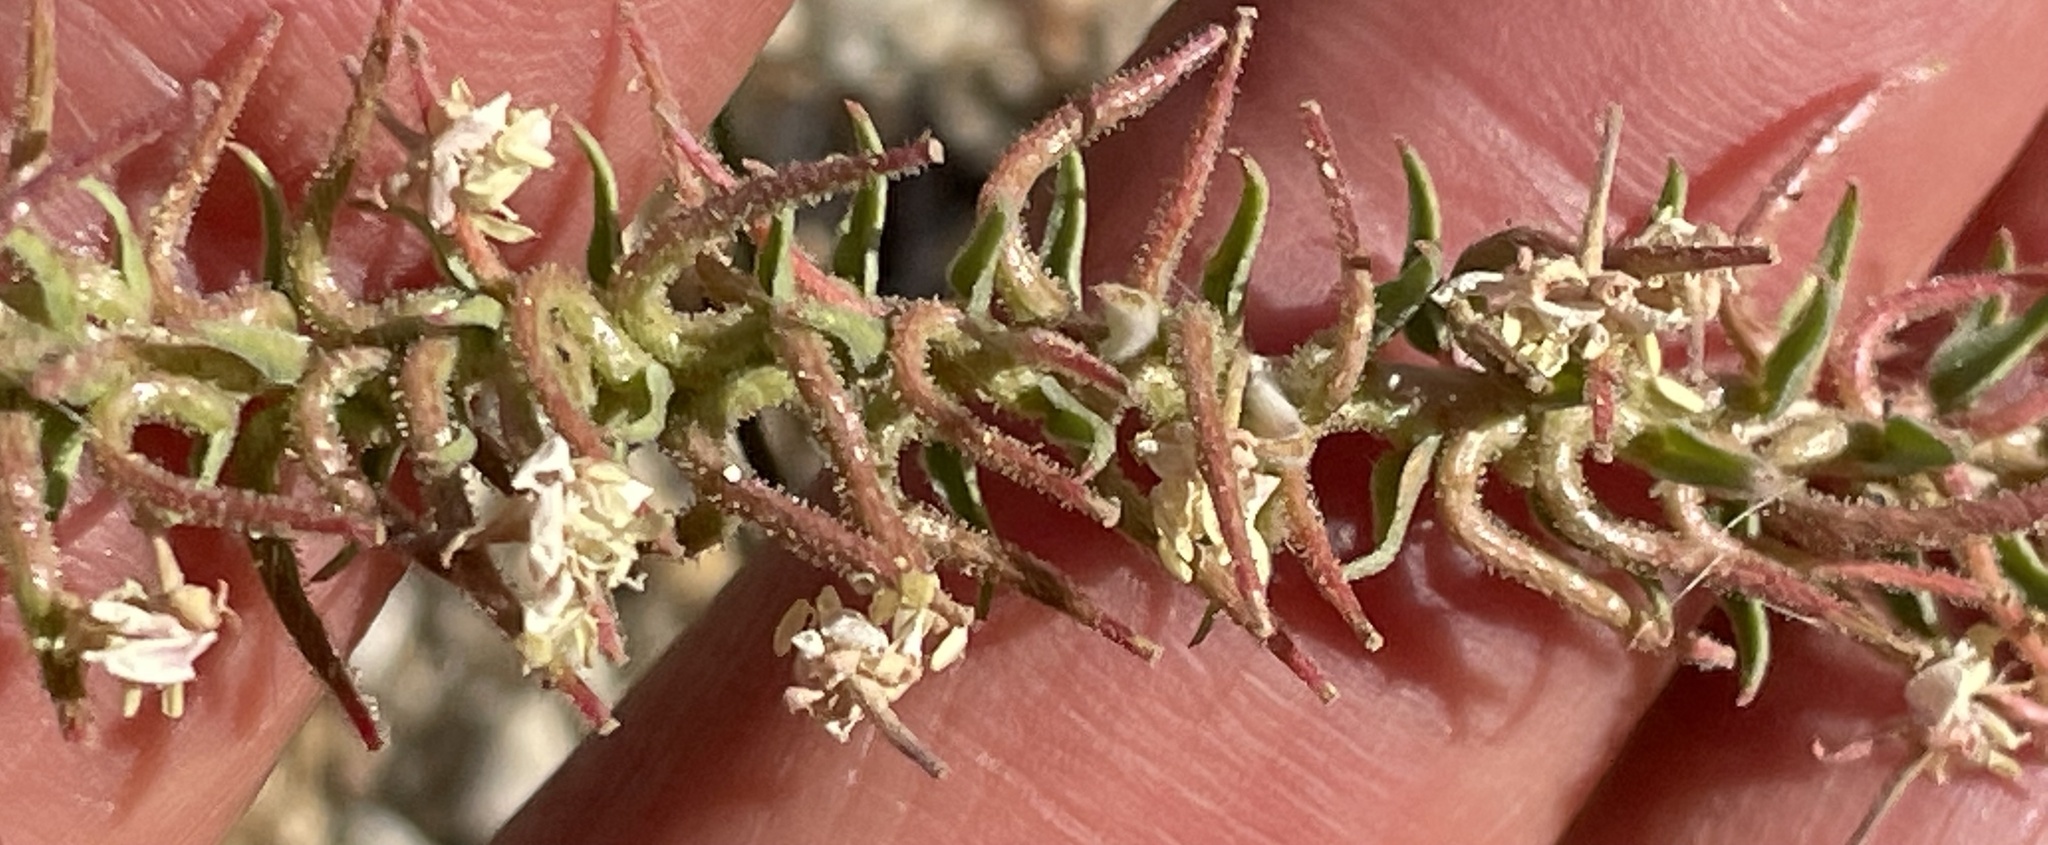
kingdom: Plantae
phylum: Tracheophyta
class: Magnoliopsida
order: Myrtales
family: Onagraceae
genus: Eremothera
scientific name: Eremothera boothii
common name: Booth's evening primrose
